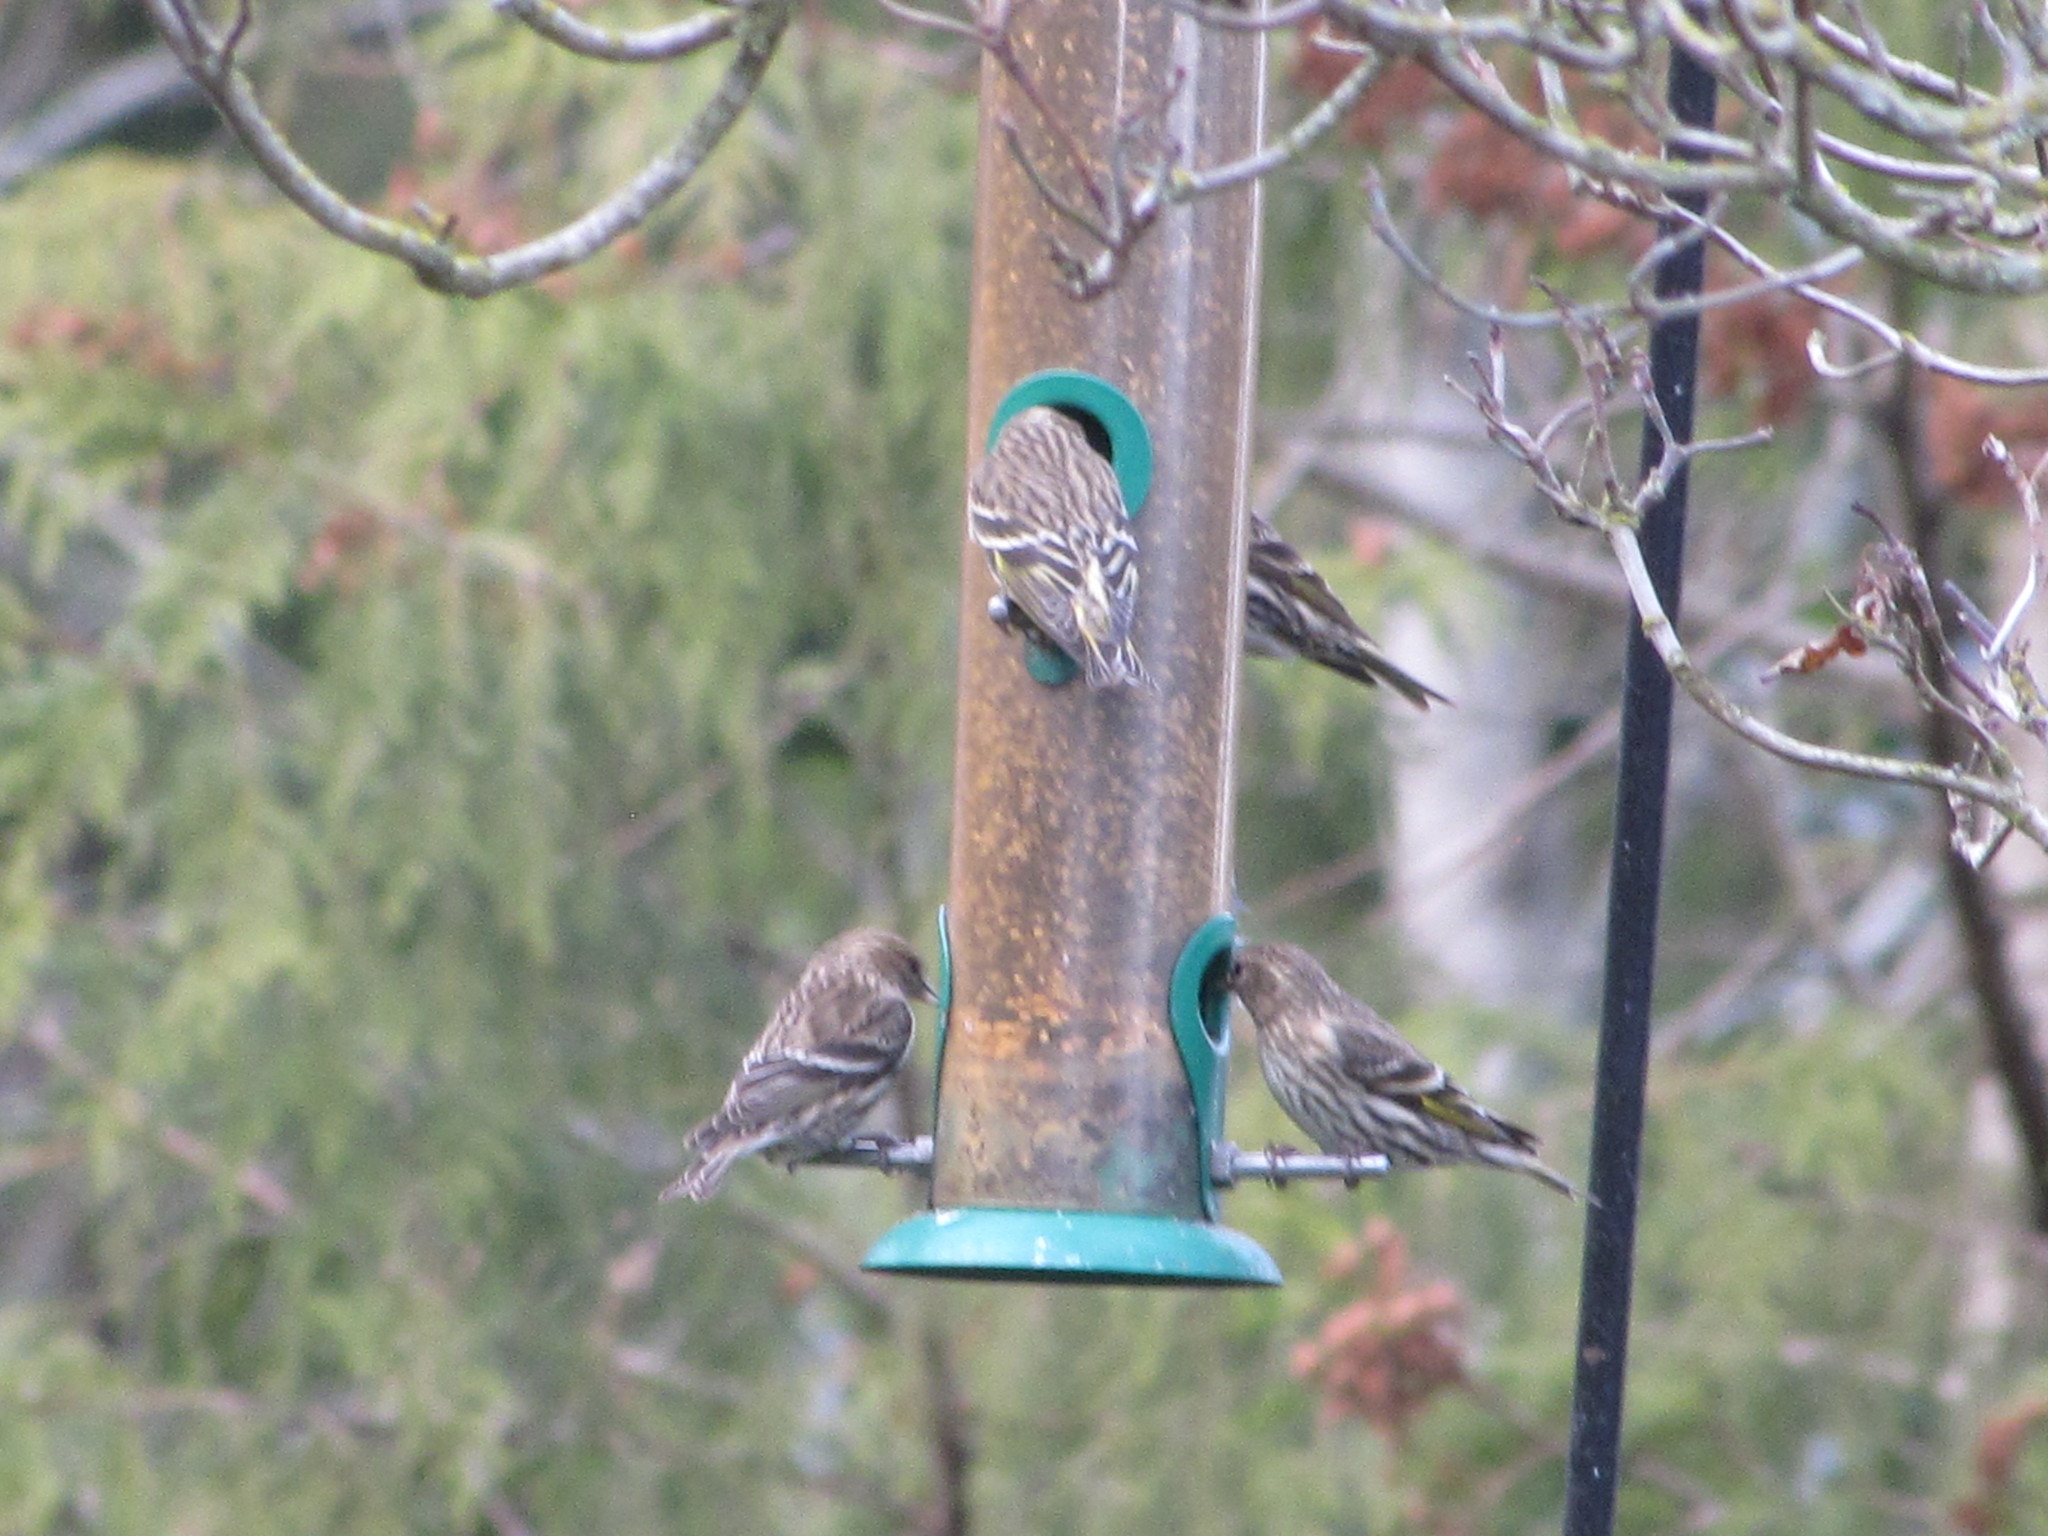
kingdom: Animalia
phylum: Chordata
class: Aves
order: Passeriformes
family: Fringillidae
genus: Spinus
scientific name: Spinus pinus
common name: Pine siskin
